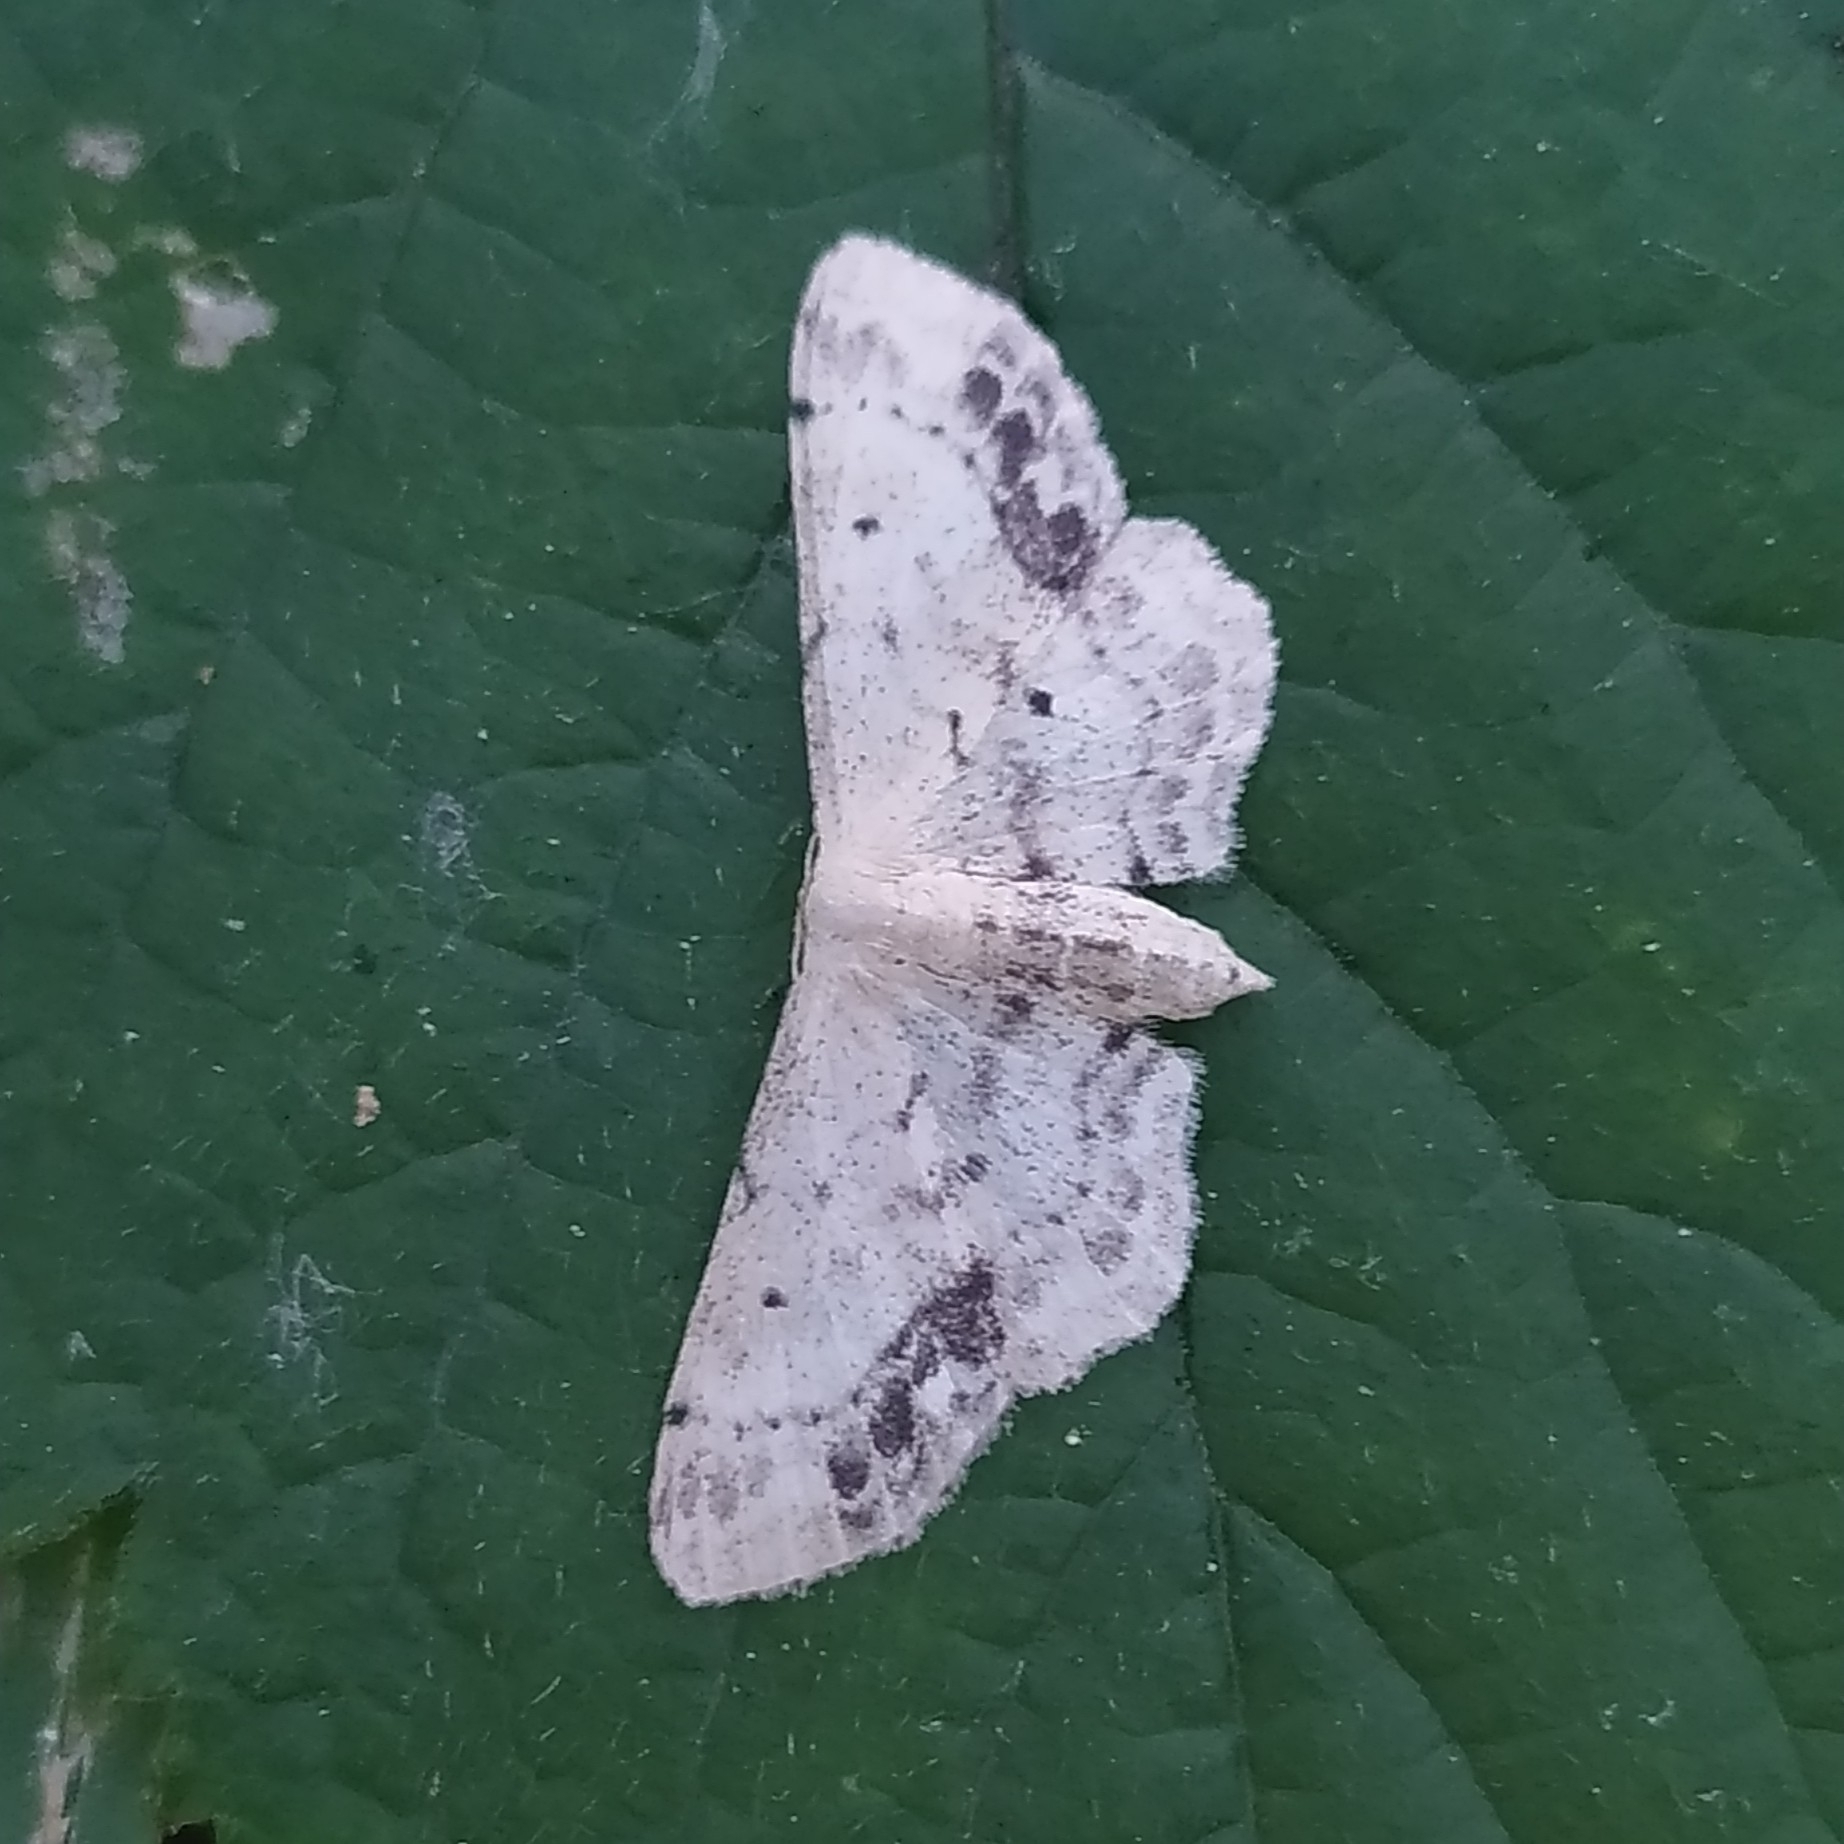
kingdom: Animalia
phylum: Arthropoda
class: Insecta
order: Lepidoptera
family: Geometridae
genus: Idaea
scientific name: Idaea dimidiata
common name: Single-dotted wave
